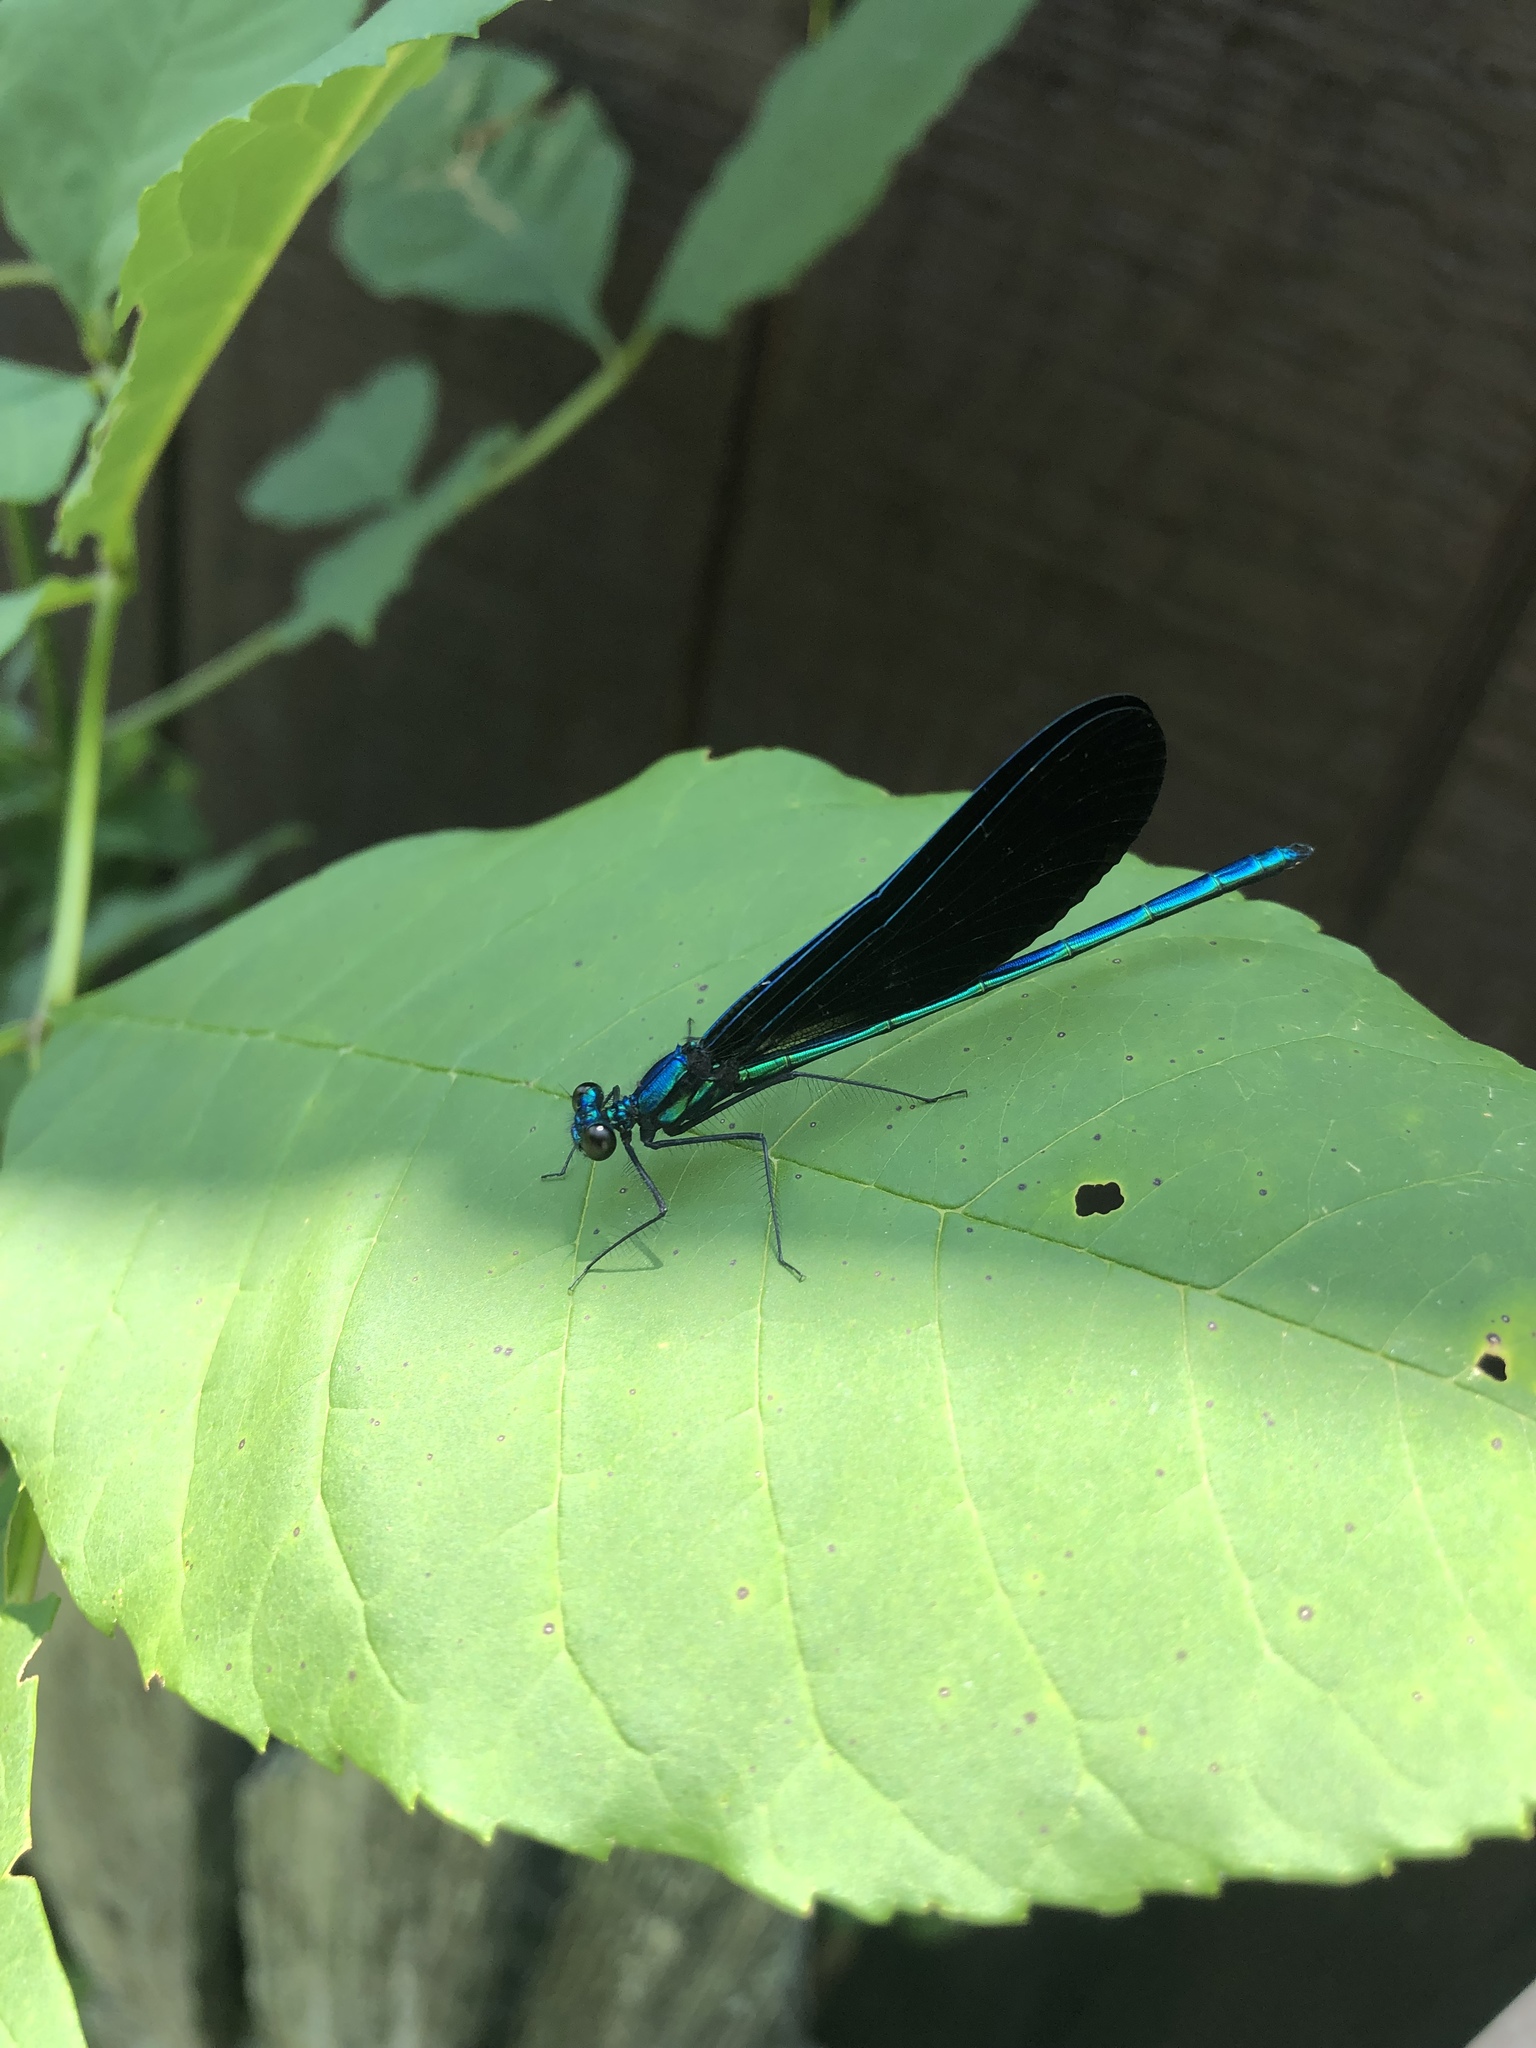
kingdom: Animalia
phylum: Arthropoda
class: Insecta
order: Odonata
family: Calopterygidae
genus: Calopteryx
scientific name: Calopteryx maculata
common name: Ebony jewelwing
